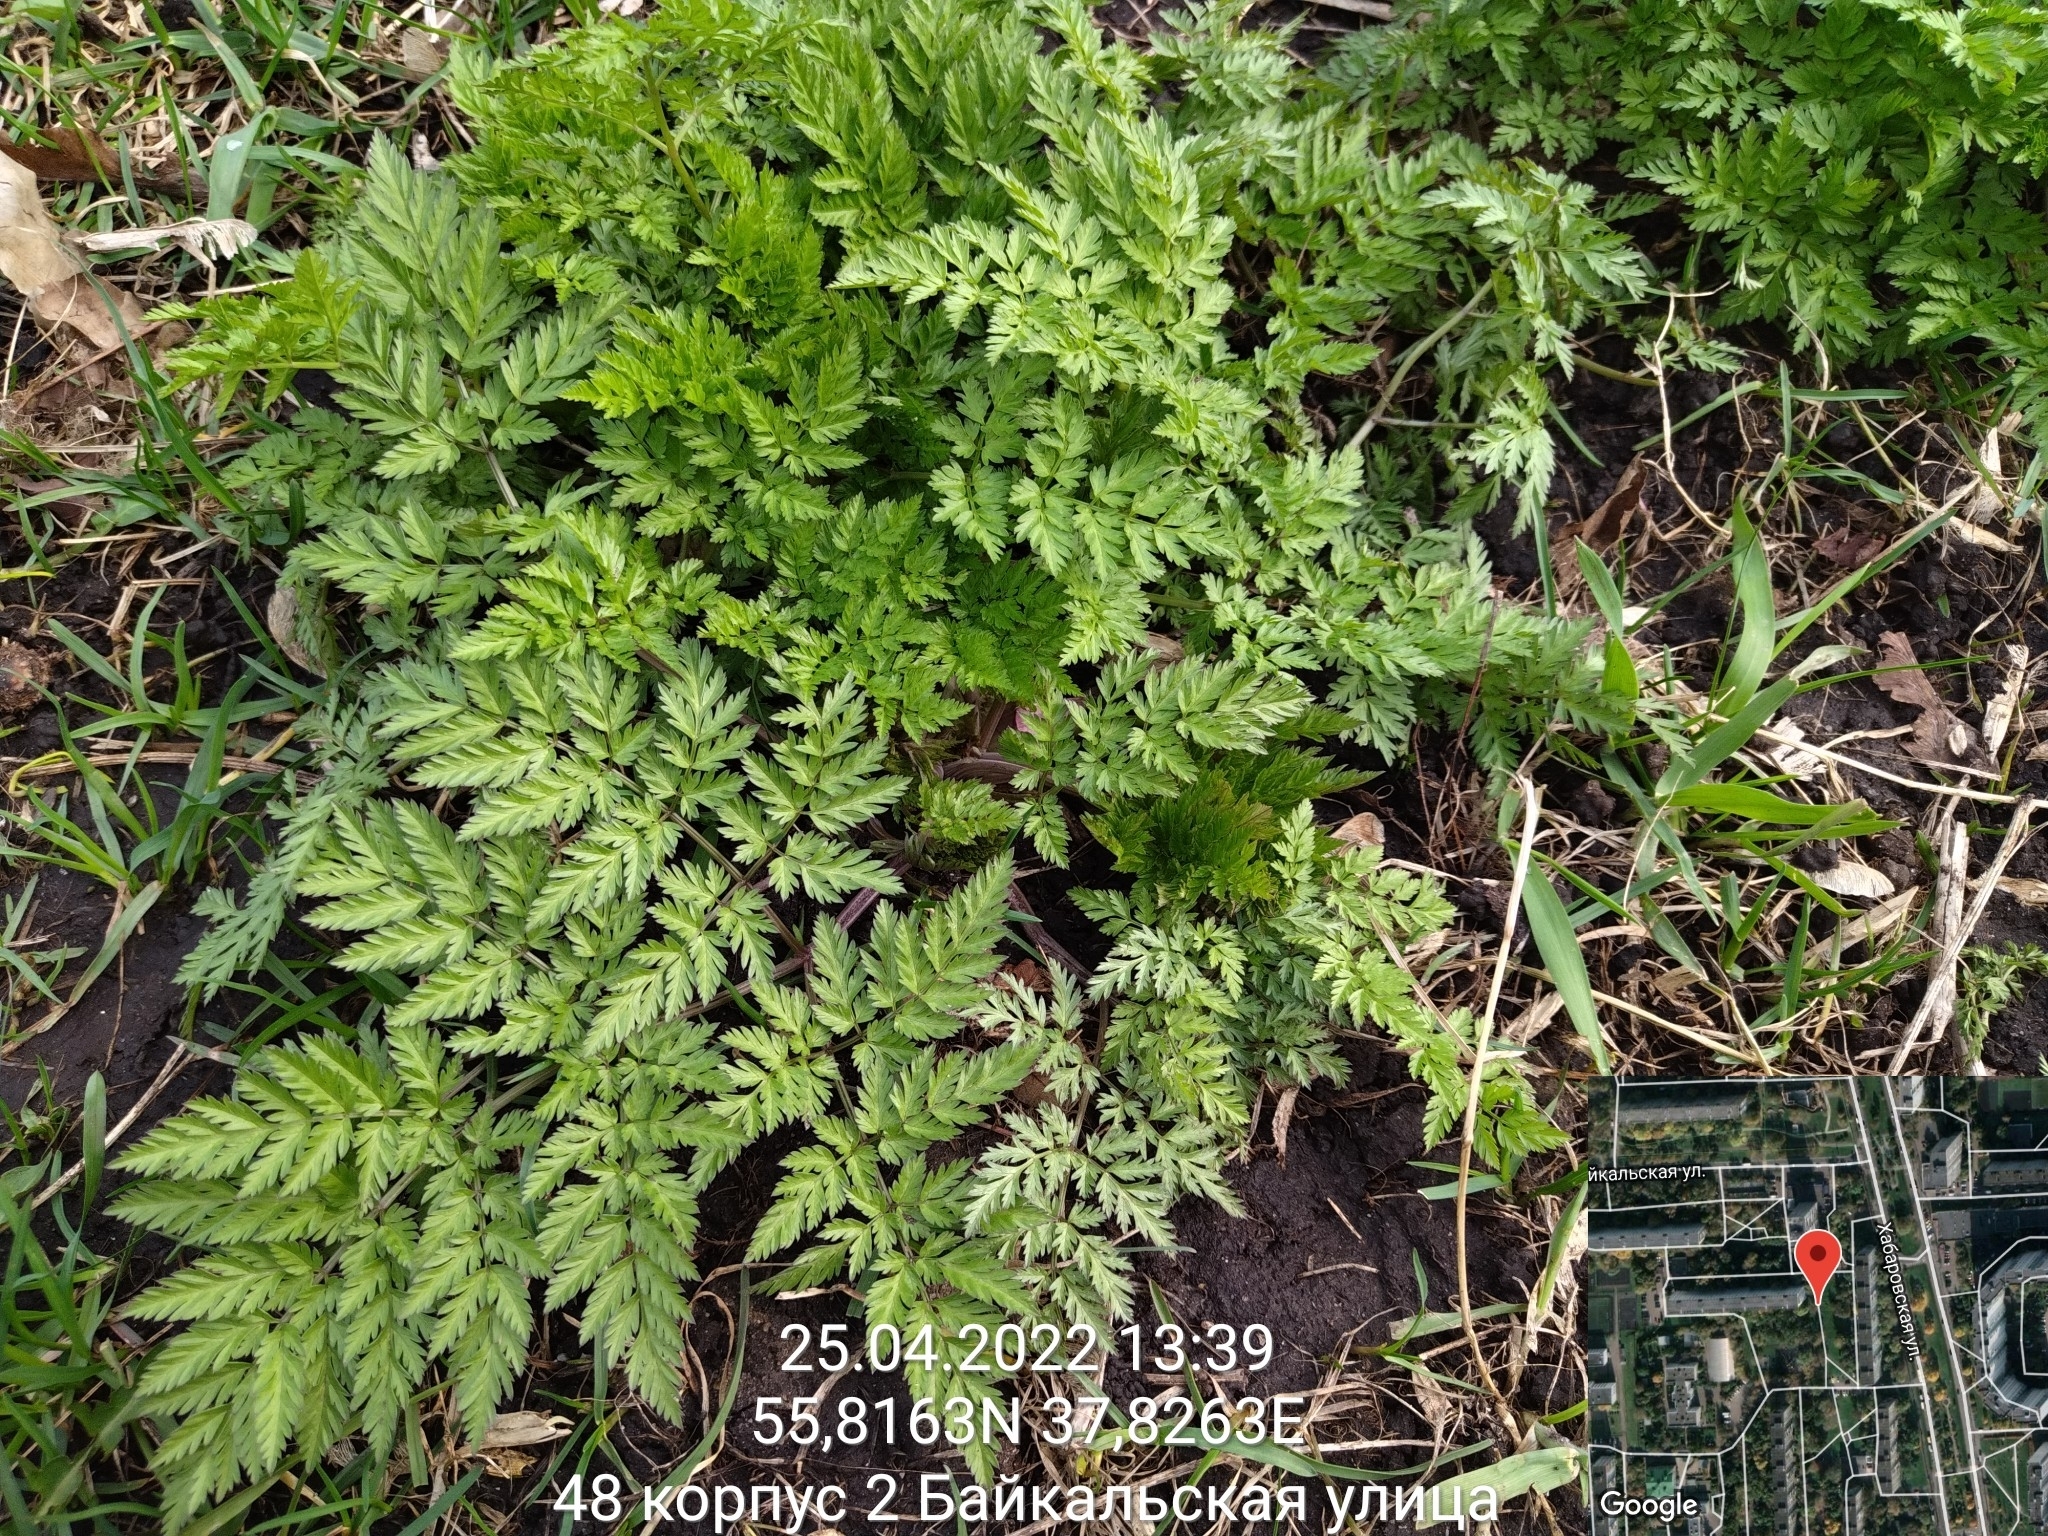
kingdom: Plantae
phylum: Tracheophyta
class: Magnoliopsida
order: Apiales
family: Apiaceae
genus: Anthriscus
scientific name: Anthriscus sylvestris
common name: Cow parsley
